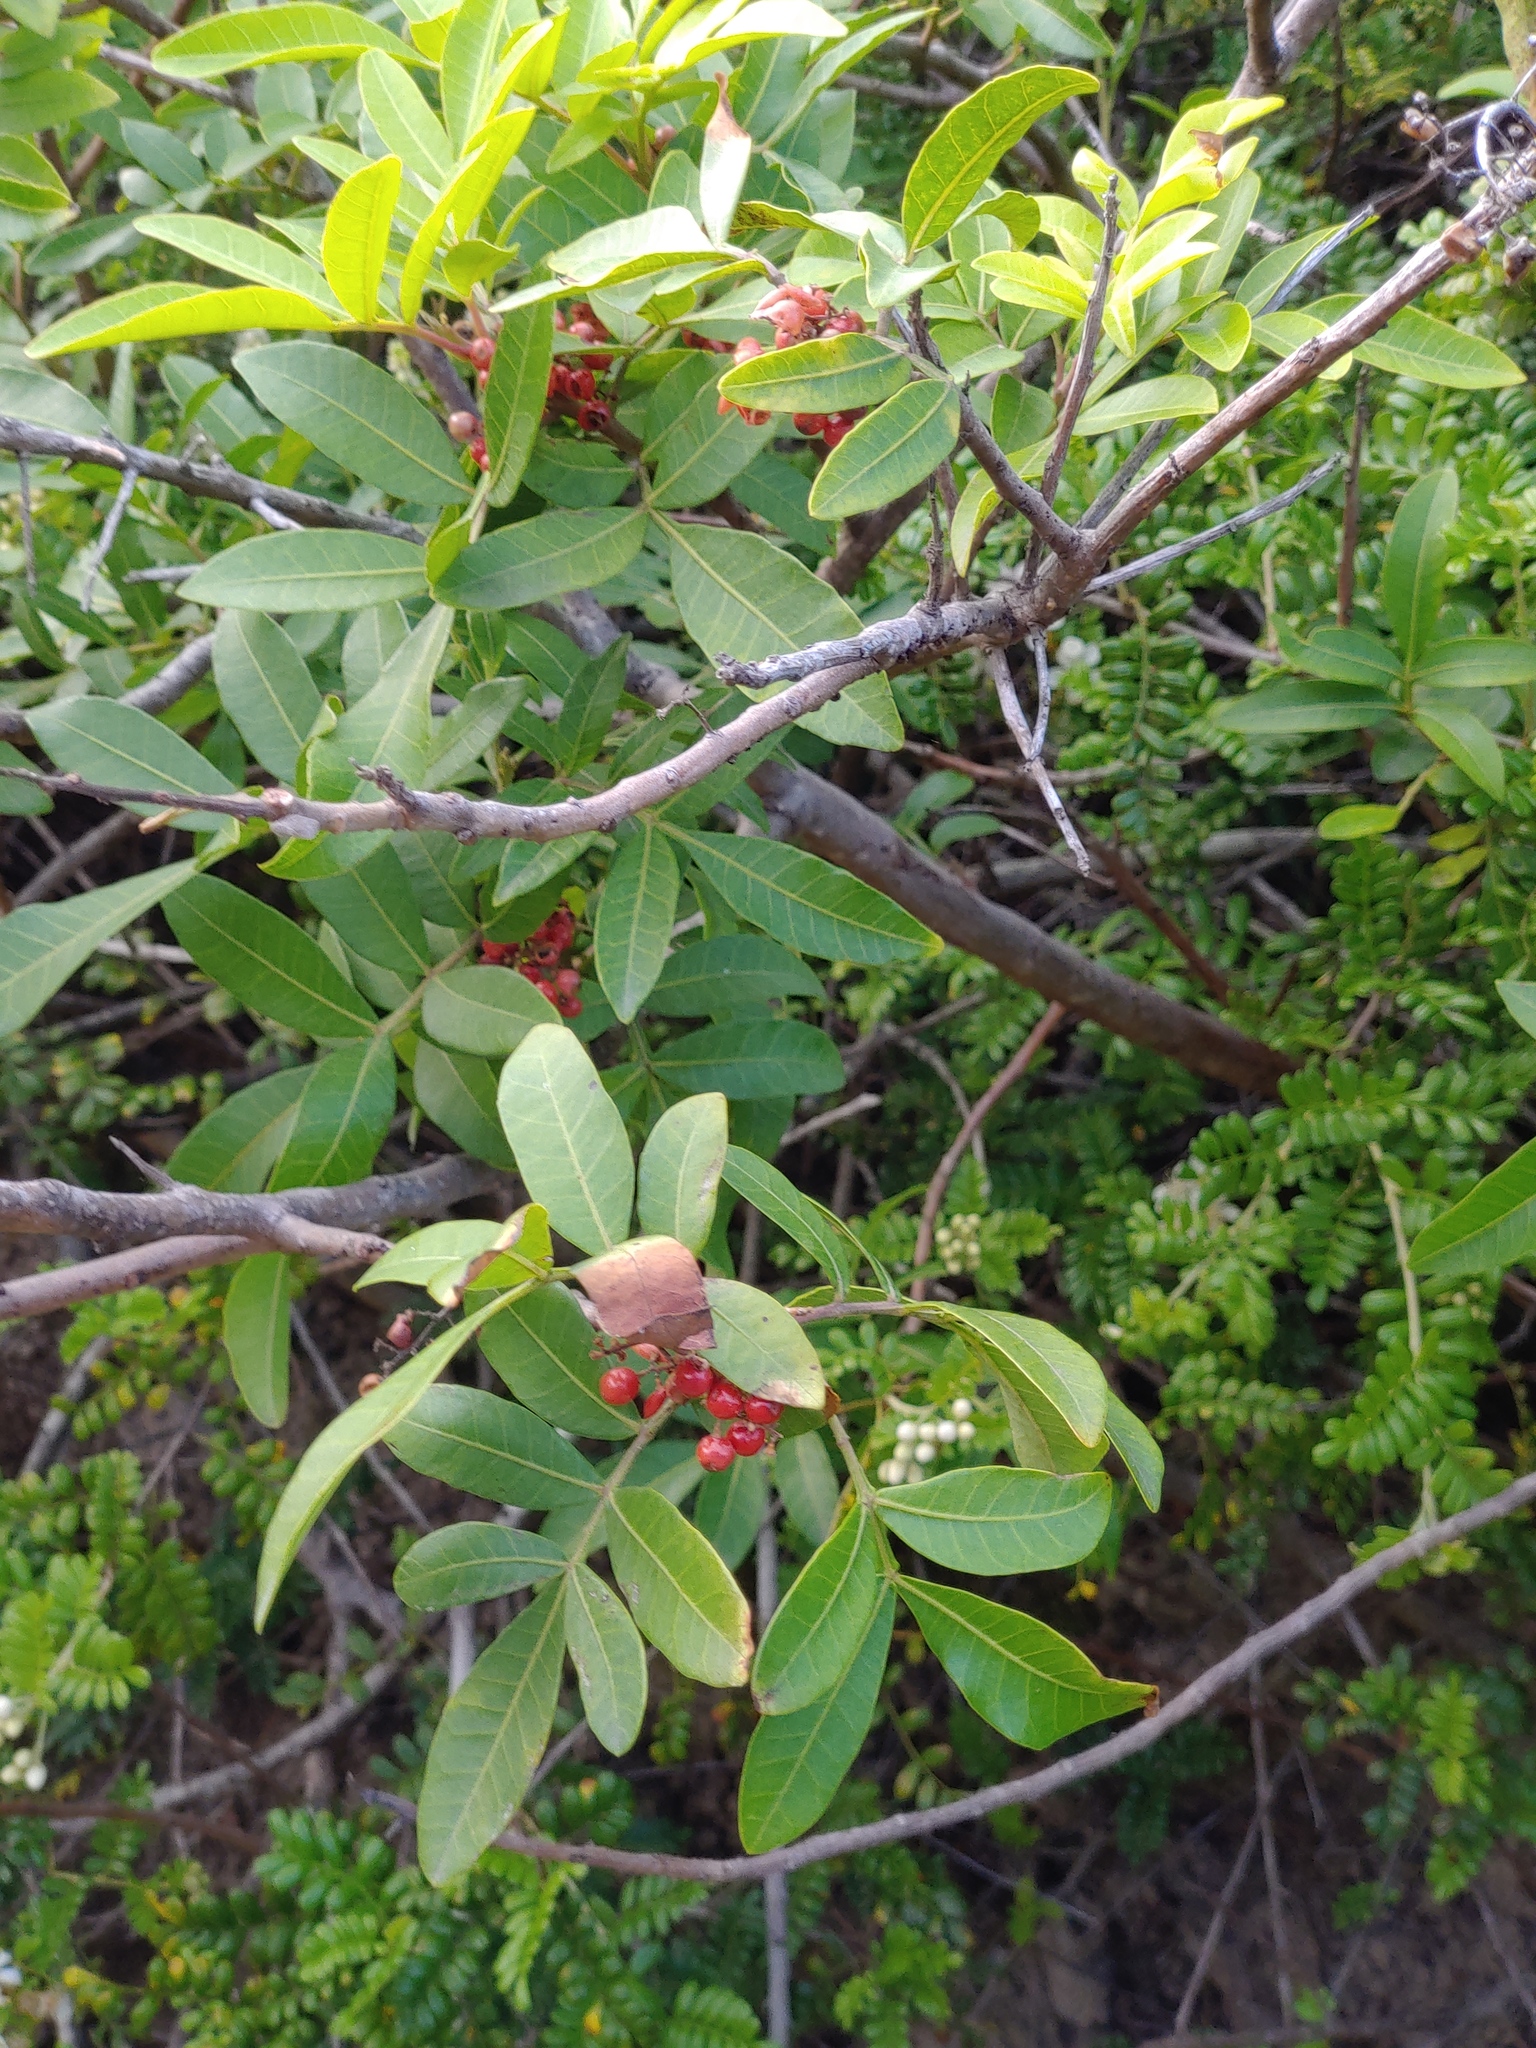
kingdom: Plantae
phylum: Tracheophyta
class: Magnoliopsida
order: Sapindales
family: Anacardiaceae
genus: Schinus
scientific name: Schinus terebinthifolia
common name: Brazilian peppertree
